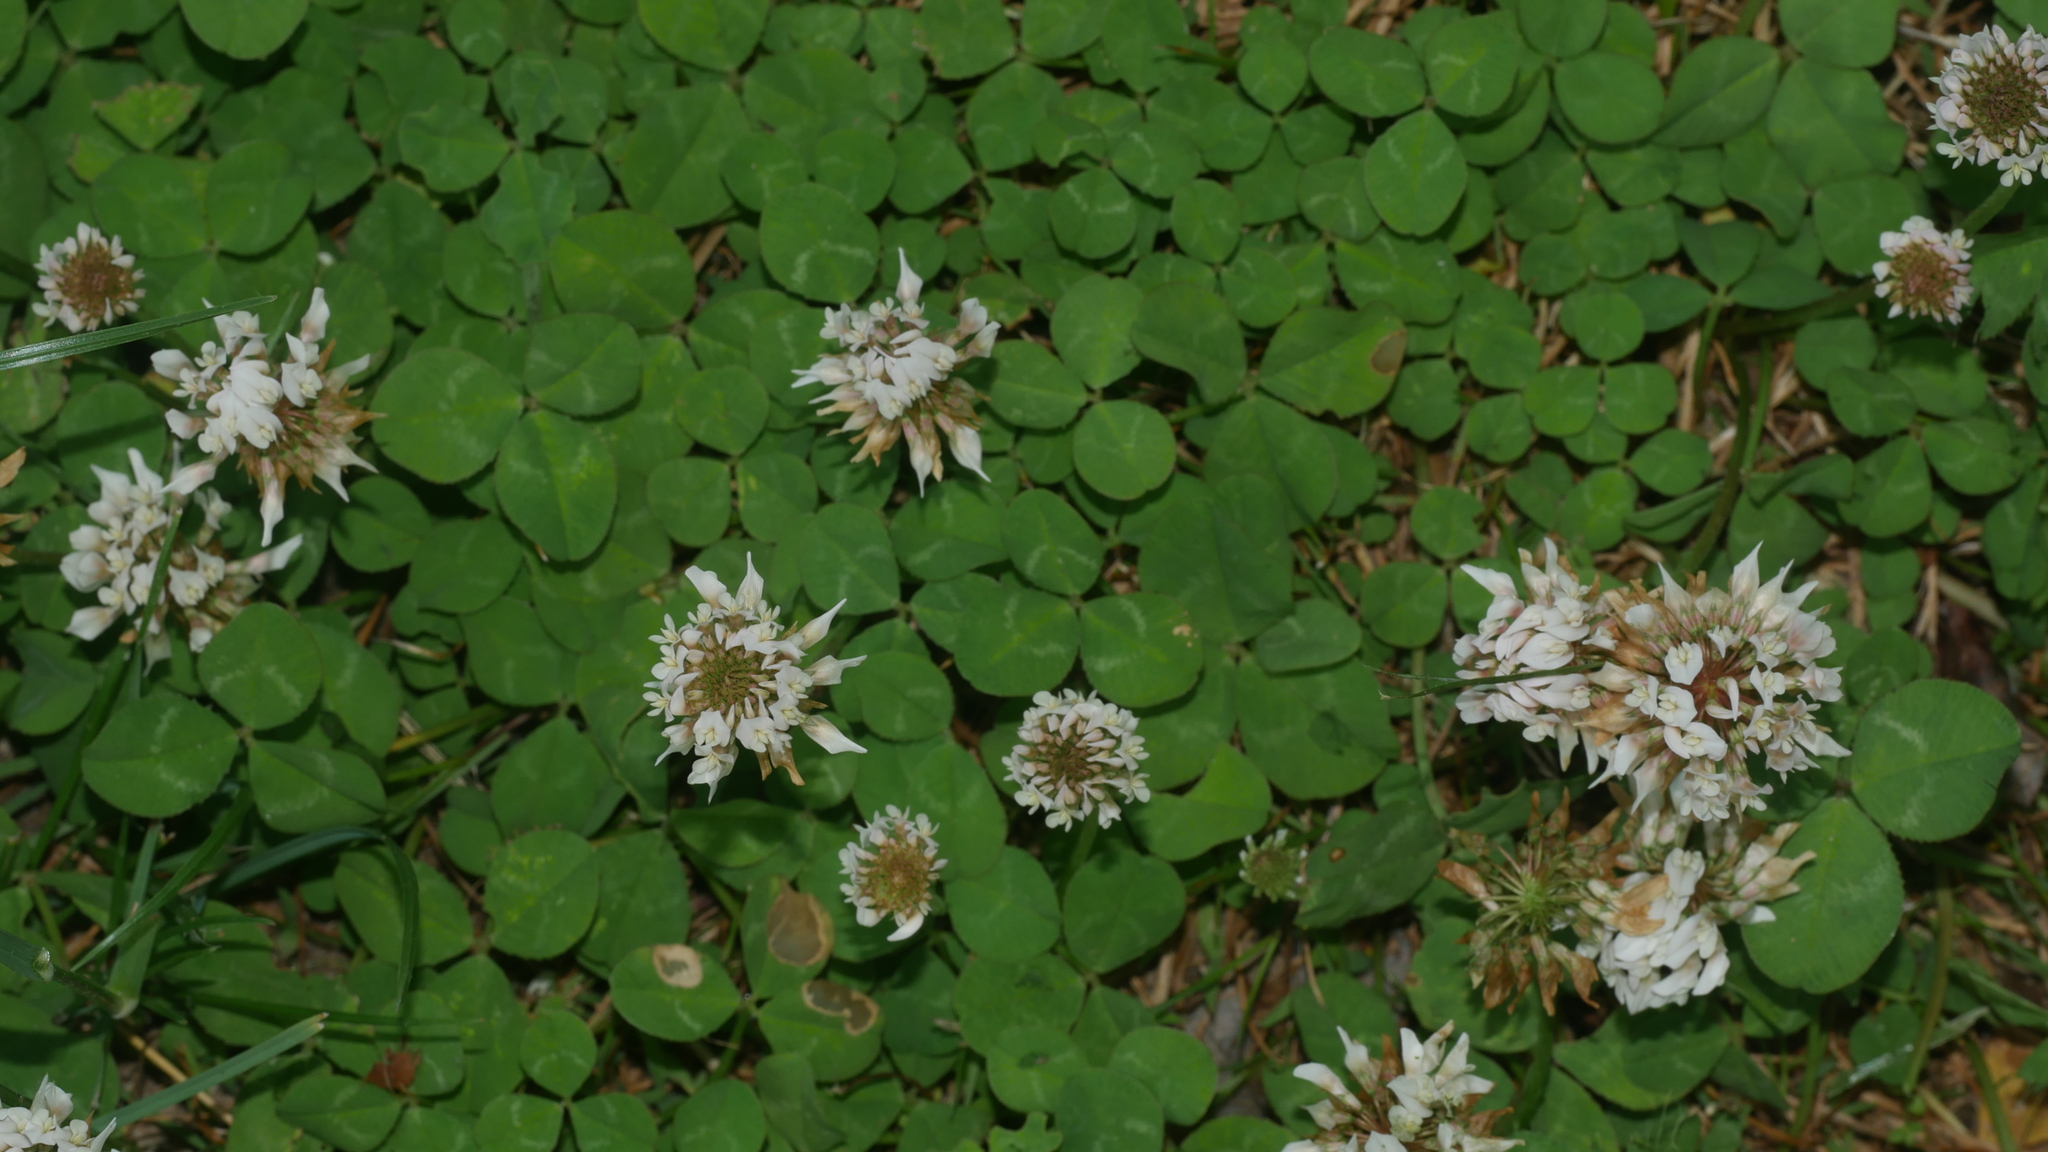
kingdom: Plantae
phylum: Tracheophyta
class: Magnoliopsida
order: Fabales
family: Fabaceae
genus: Trifolium
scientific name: Trifolium repens
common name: White clover
